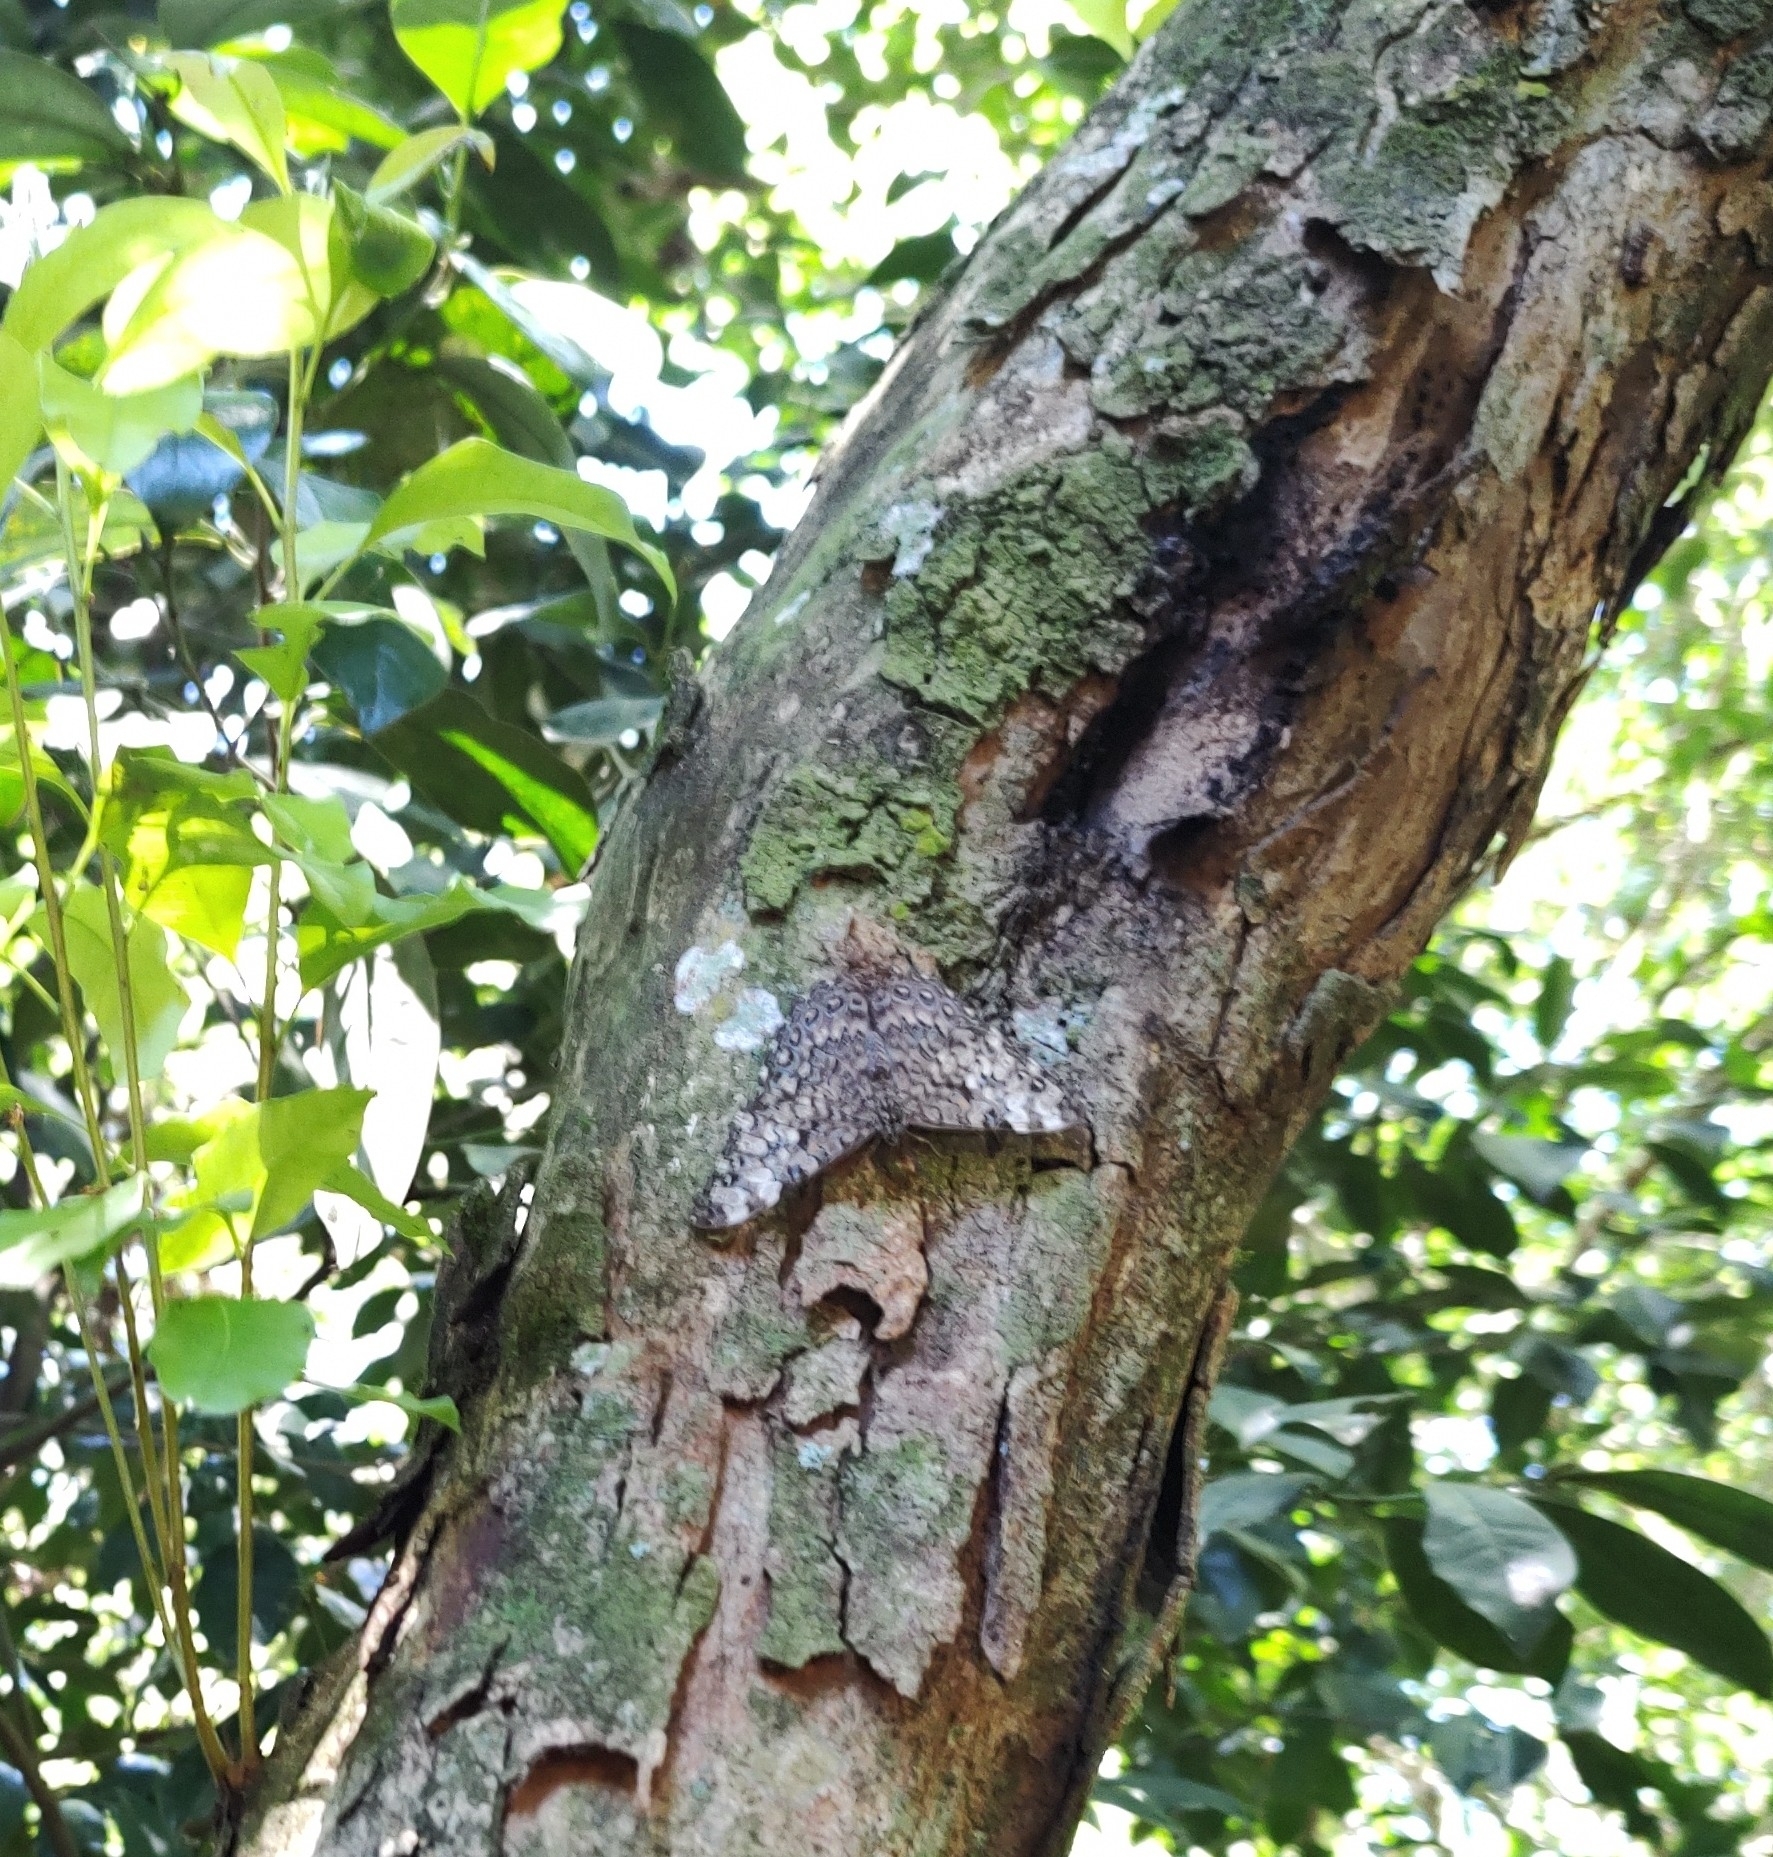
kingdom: Animalia
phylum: Arthropoda
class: Insecta
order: Lepidoptera
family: Nymphalidae
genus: Hamadryas
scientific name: Hamadryas epinome
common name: Epinome cracker
